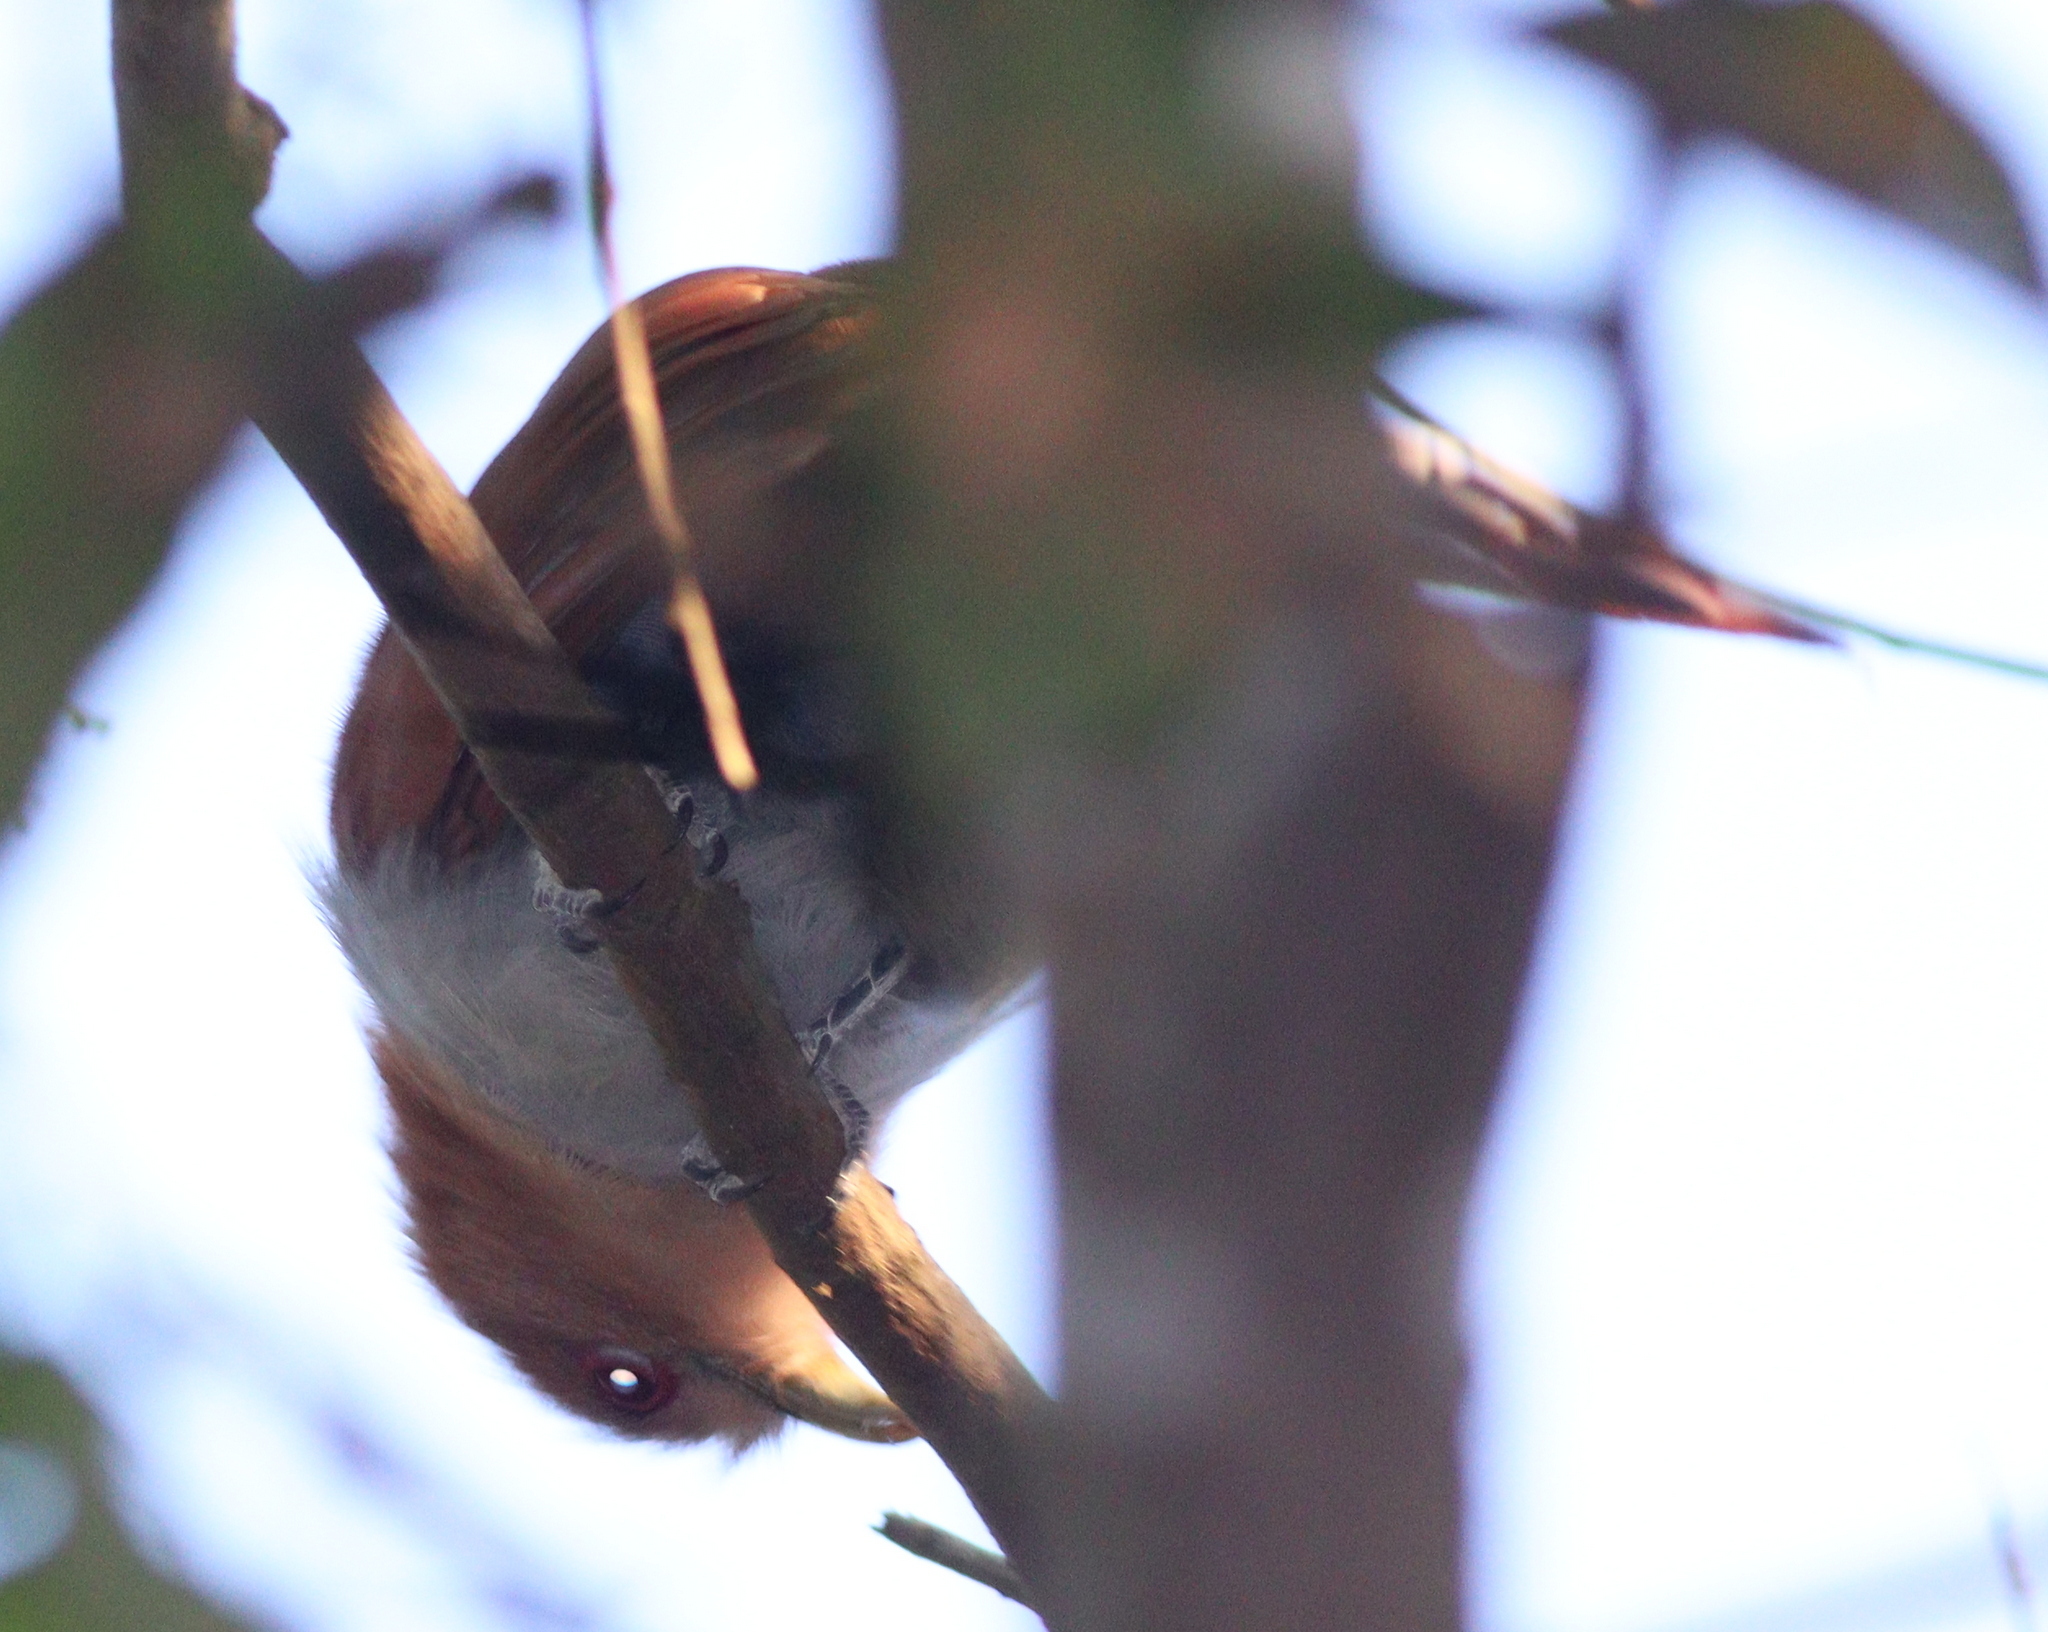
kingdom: Animalia
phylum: Chordata
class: Aves
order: Cuculiformes
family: Cuculidae
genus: Piaya
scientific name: Piaya cayana
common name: Squirrel cuckoo
